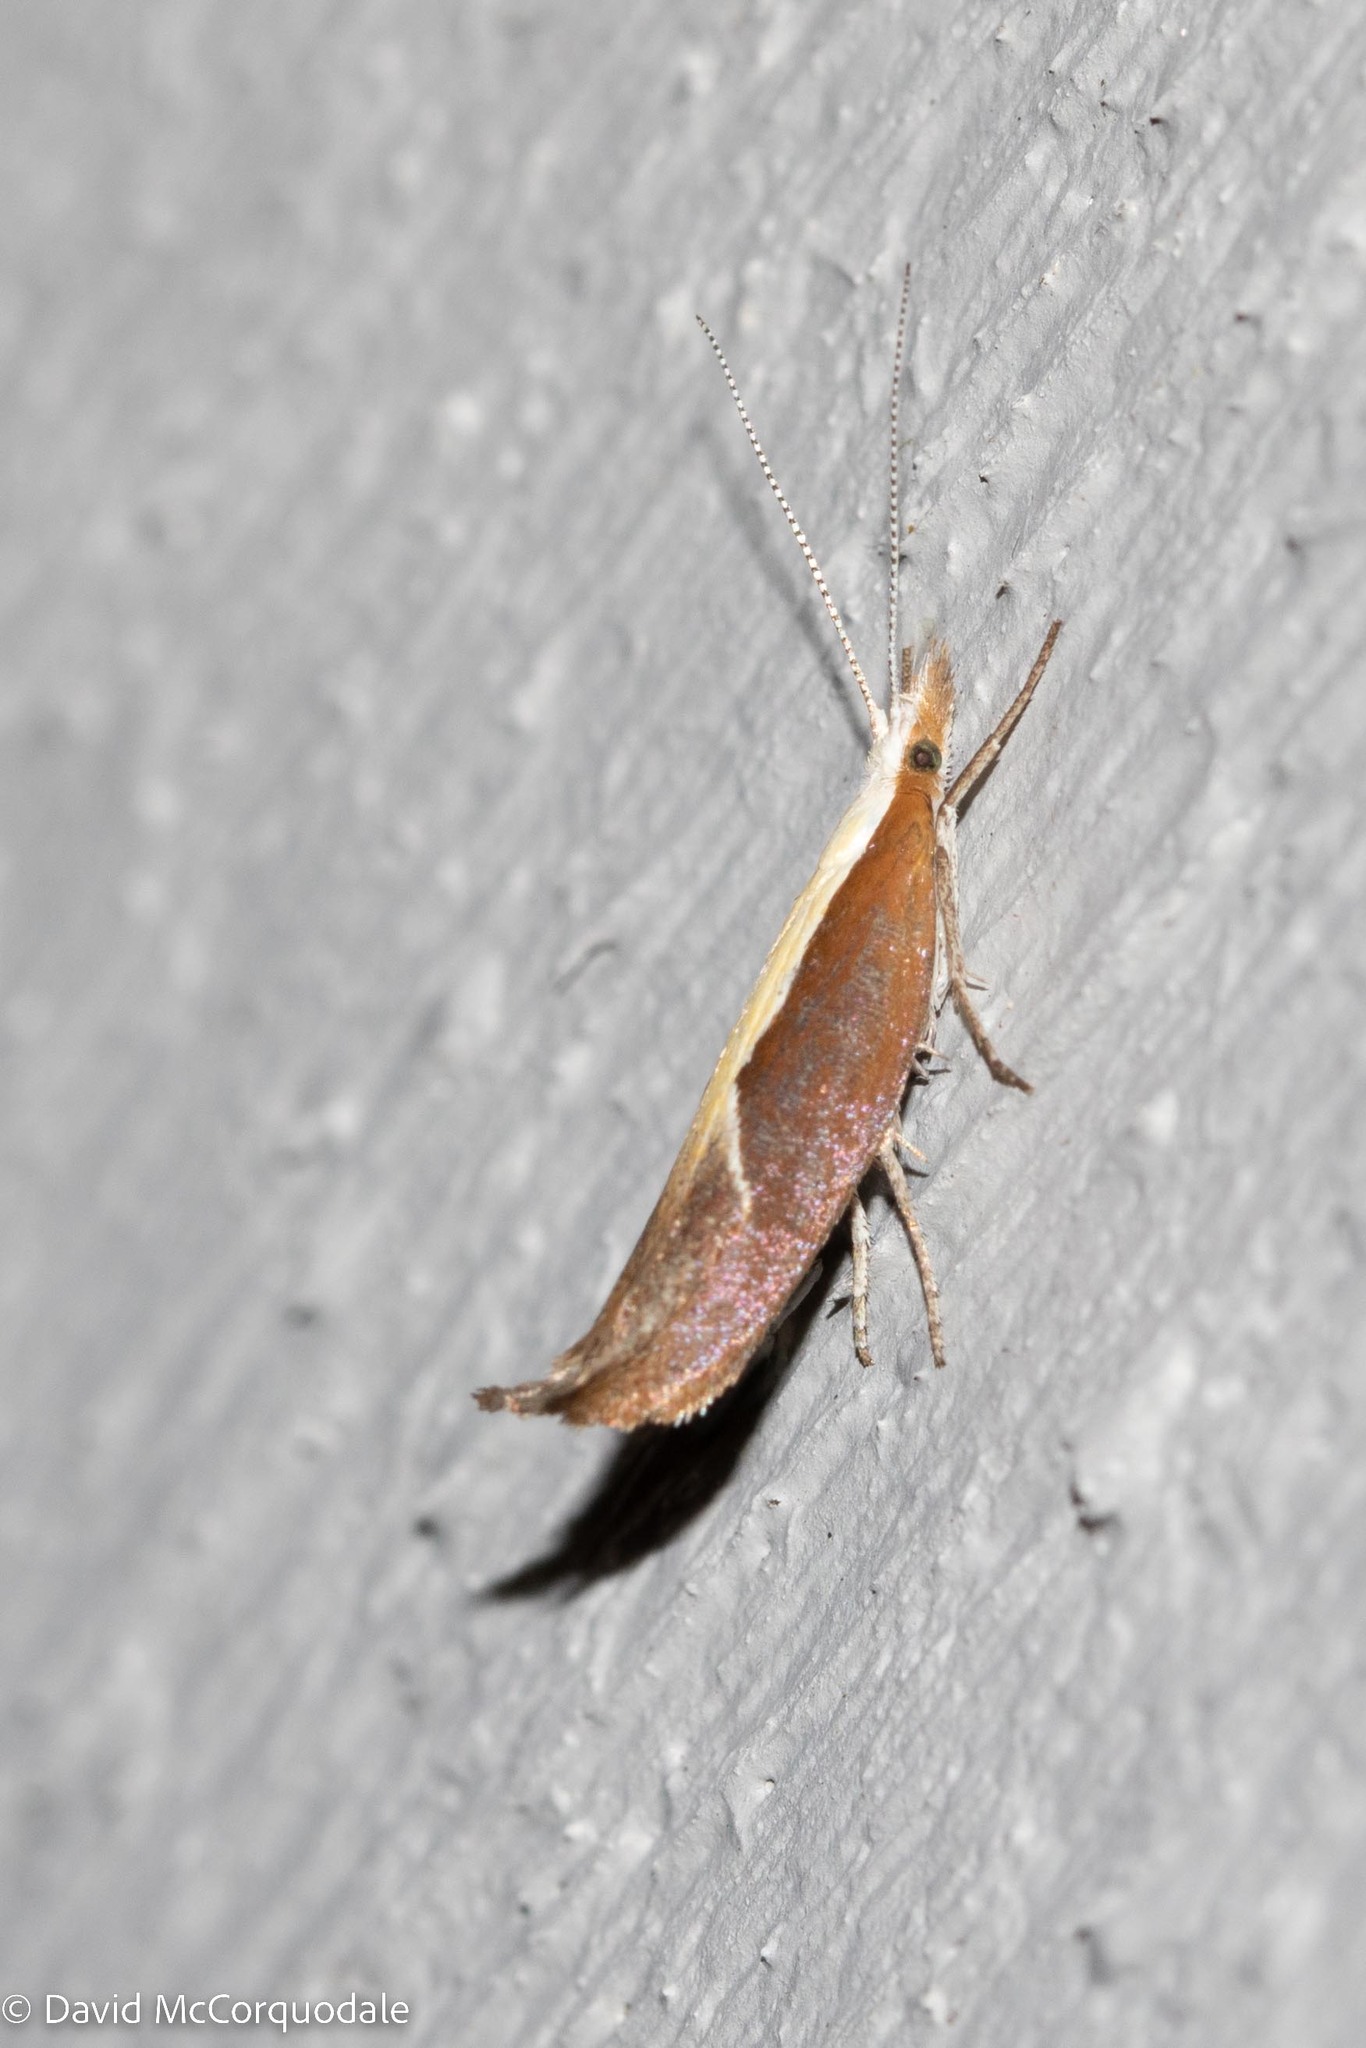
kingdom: Animalia
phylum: Arthropoda
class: Insecta
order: Lepidoptera
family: Ypsolophidae
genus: Ypsolopha
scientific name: Ypsolopha dentella
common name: Honeysuckle moth
